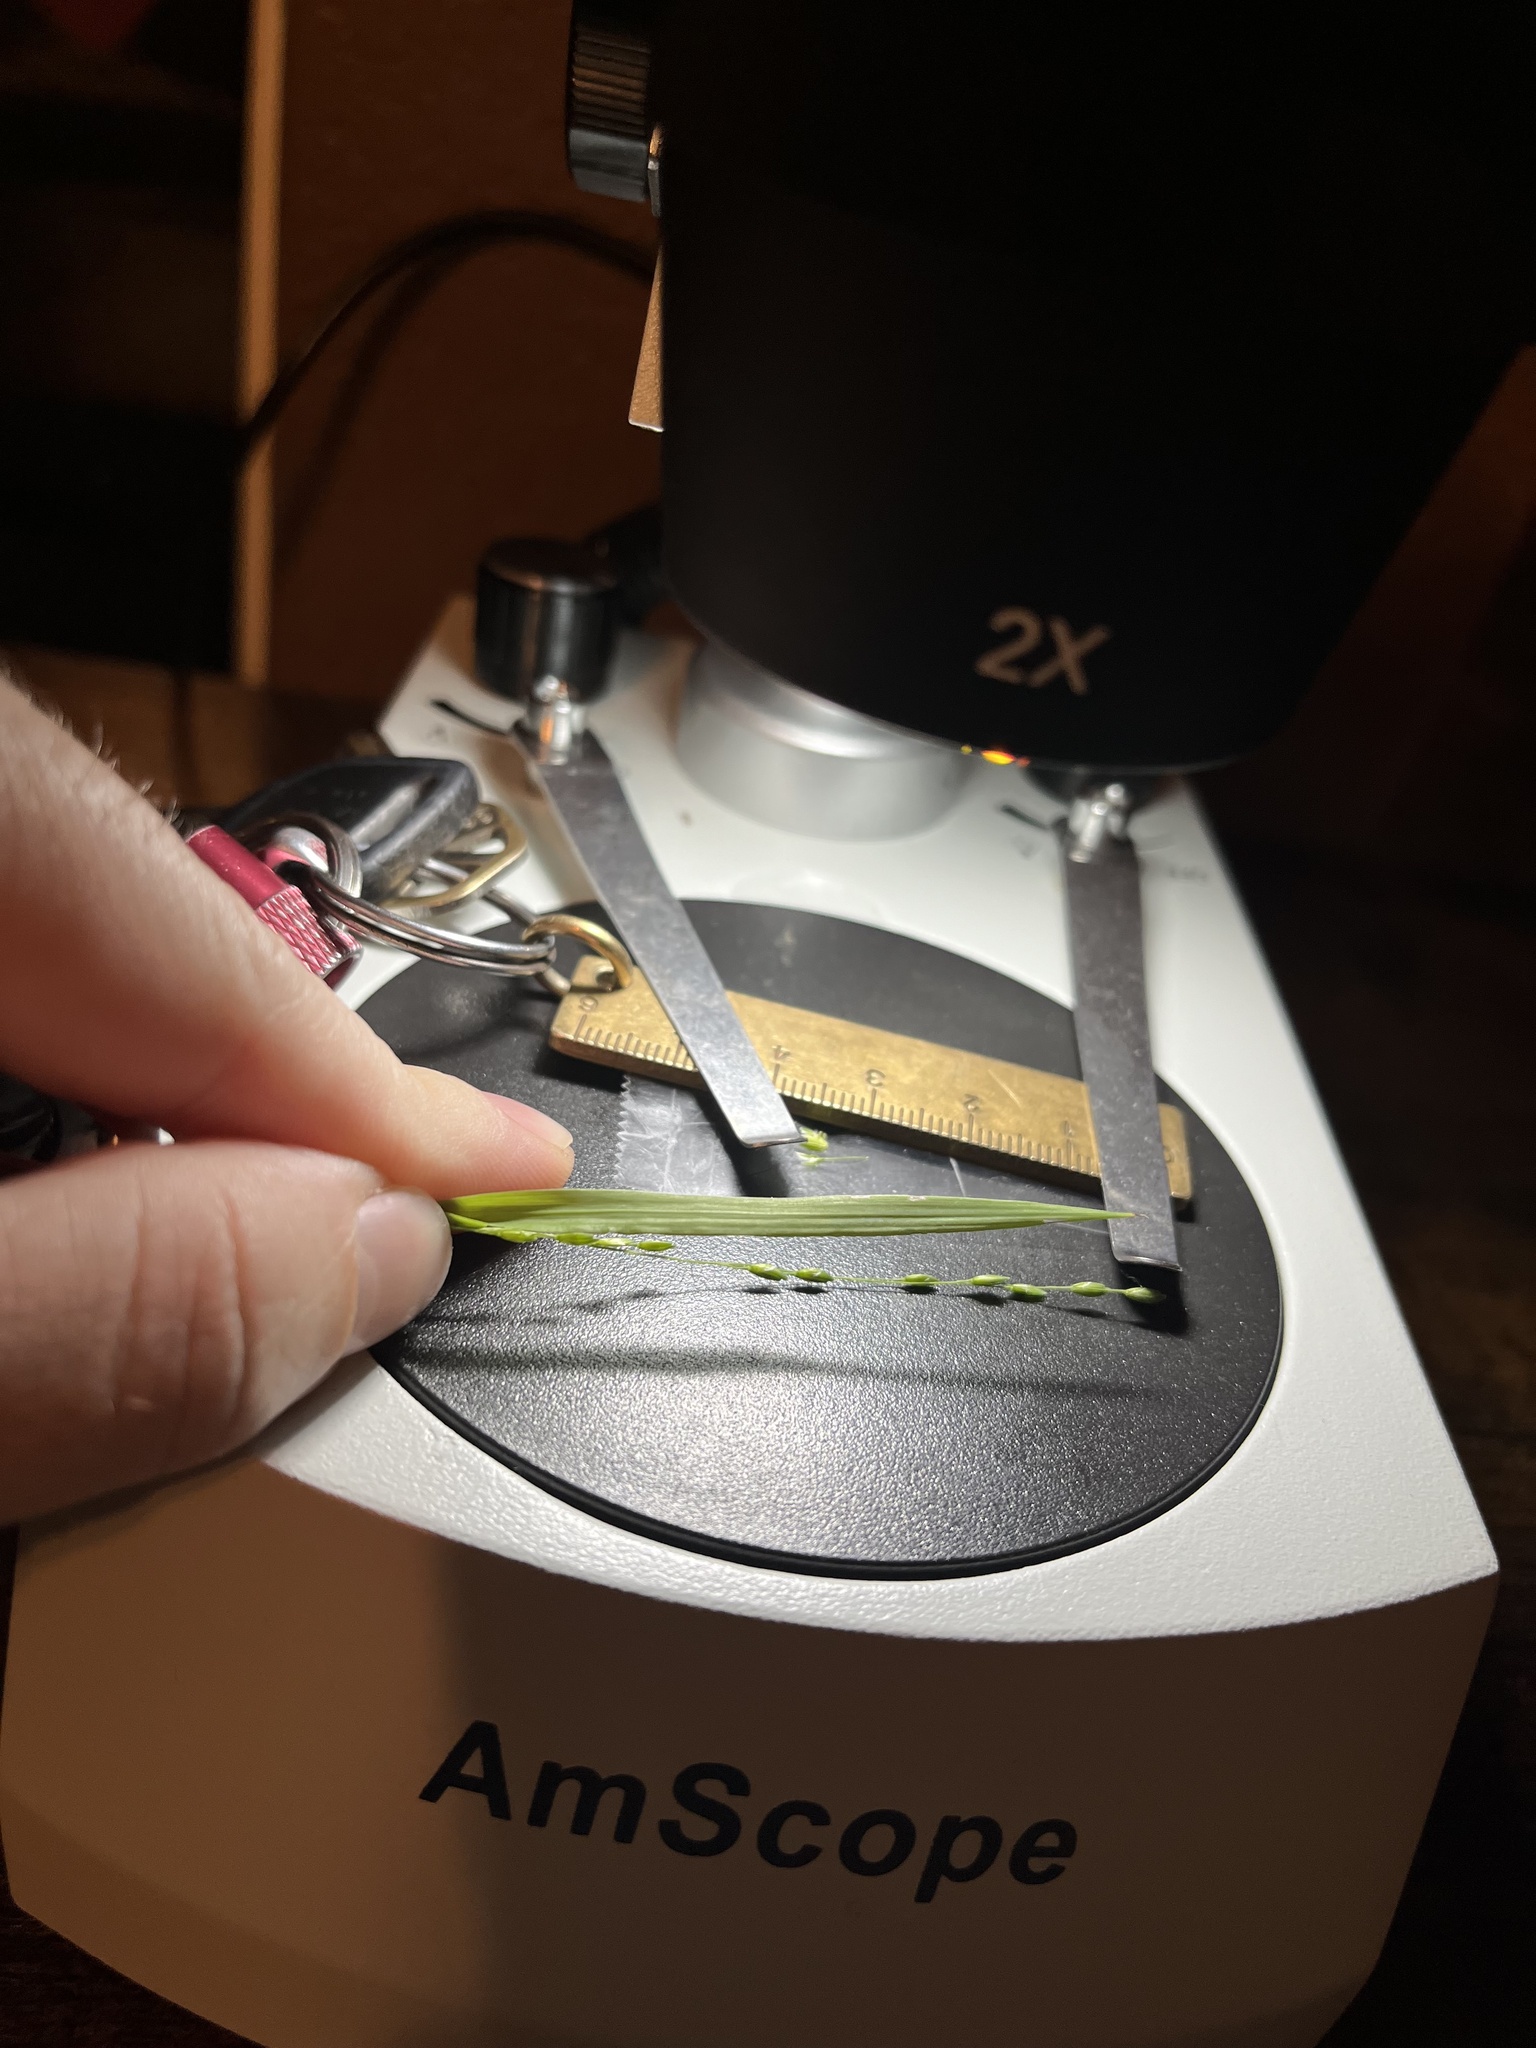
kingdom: Plantae
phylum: Tracheophyta
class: Liliopsida
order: Poales
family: Poaceae
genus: Ehrharta
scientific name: Ehrharta erecta
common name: Panic veldtgrass
